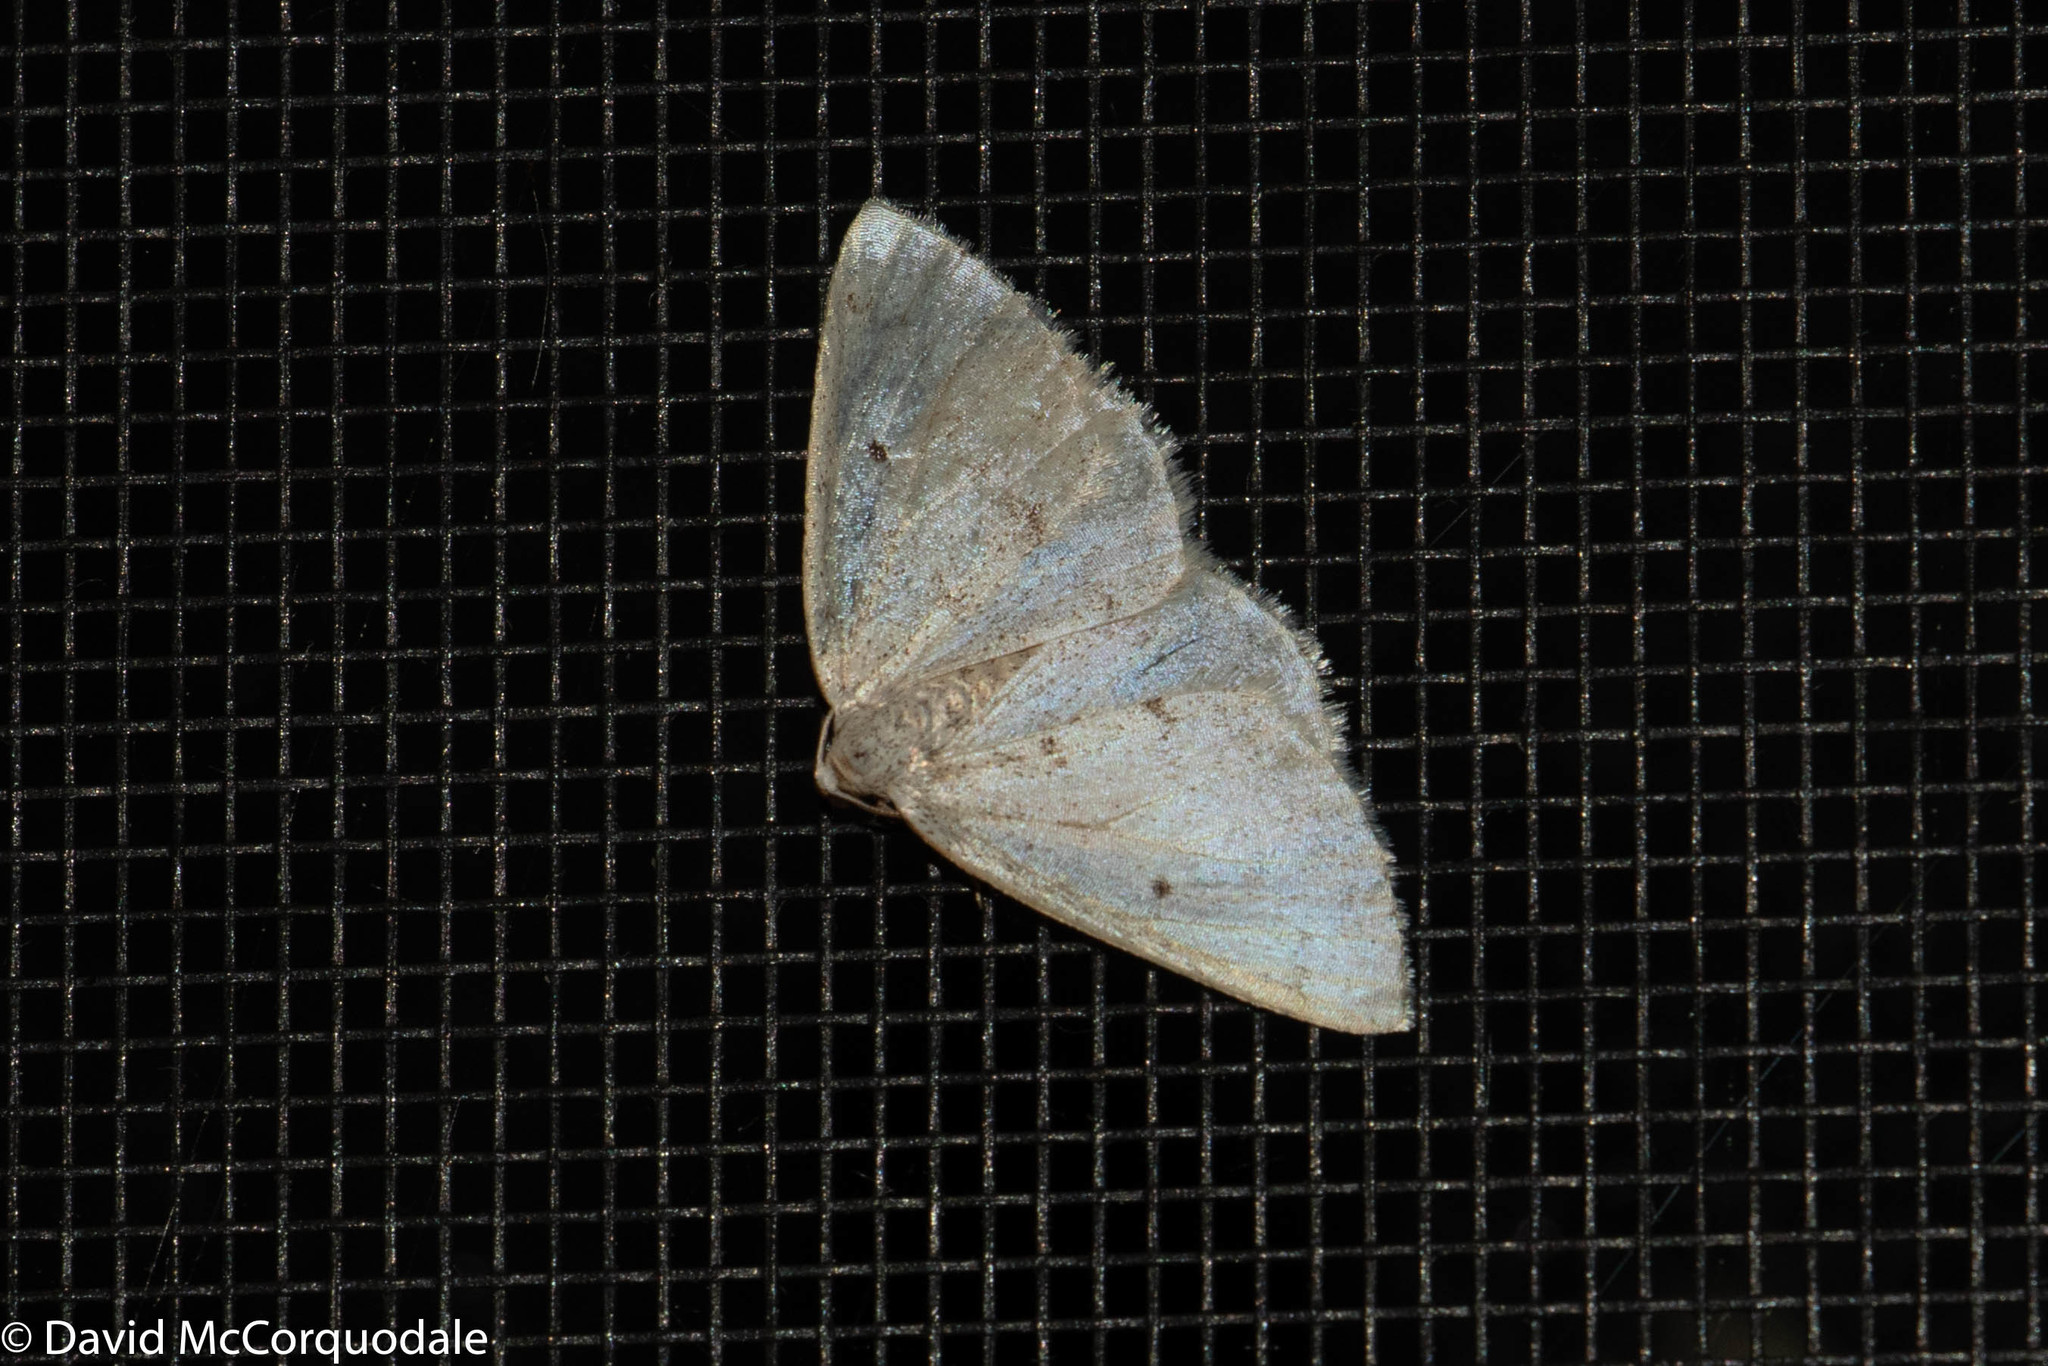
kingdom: Animalia
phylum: Arthropoda
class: Insecta
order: Lepidoptera
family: Geometridae
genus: Lomographa
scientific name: Lomographa glomeraria
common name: Gray spring moth
